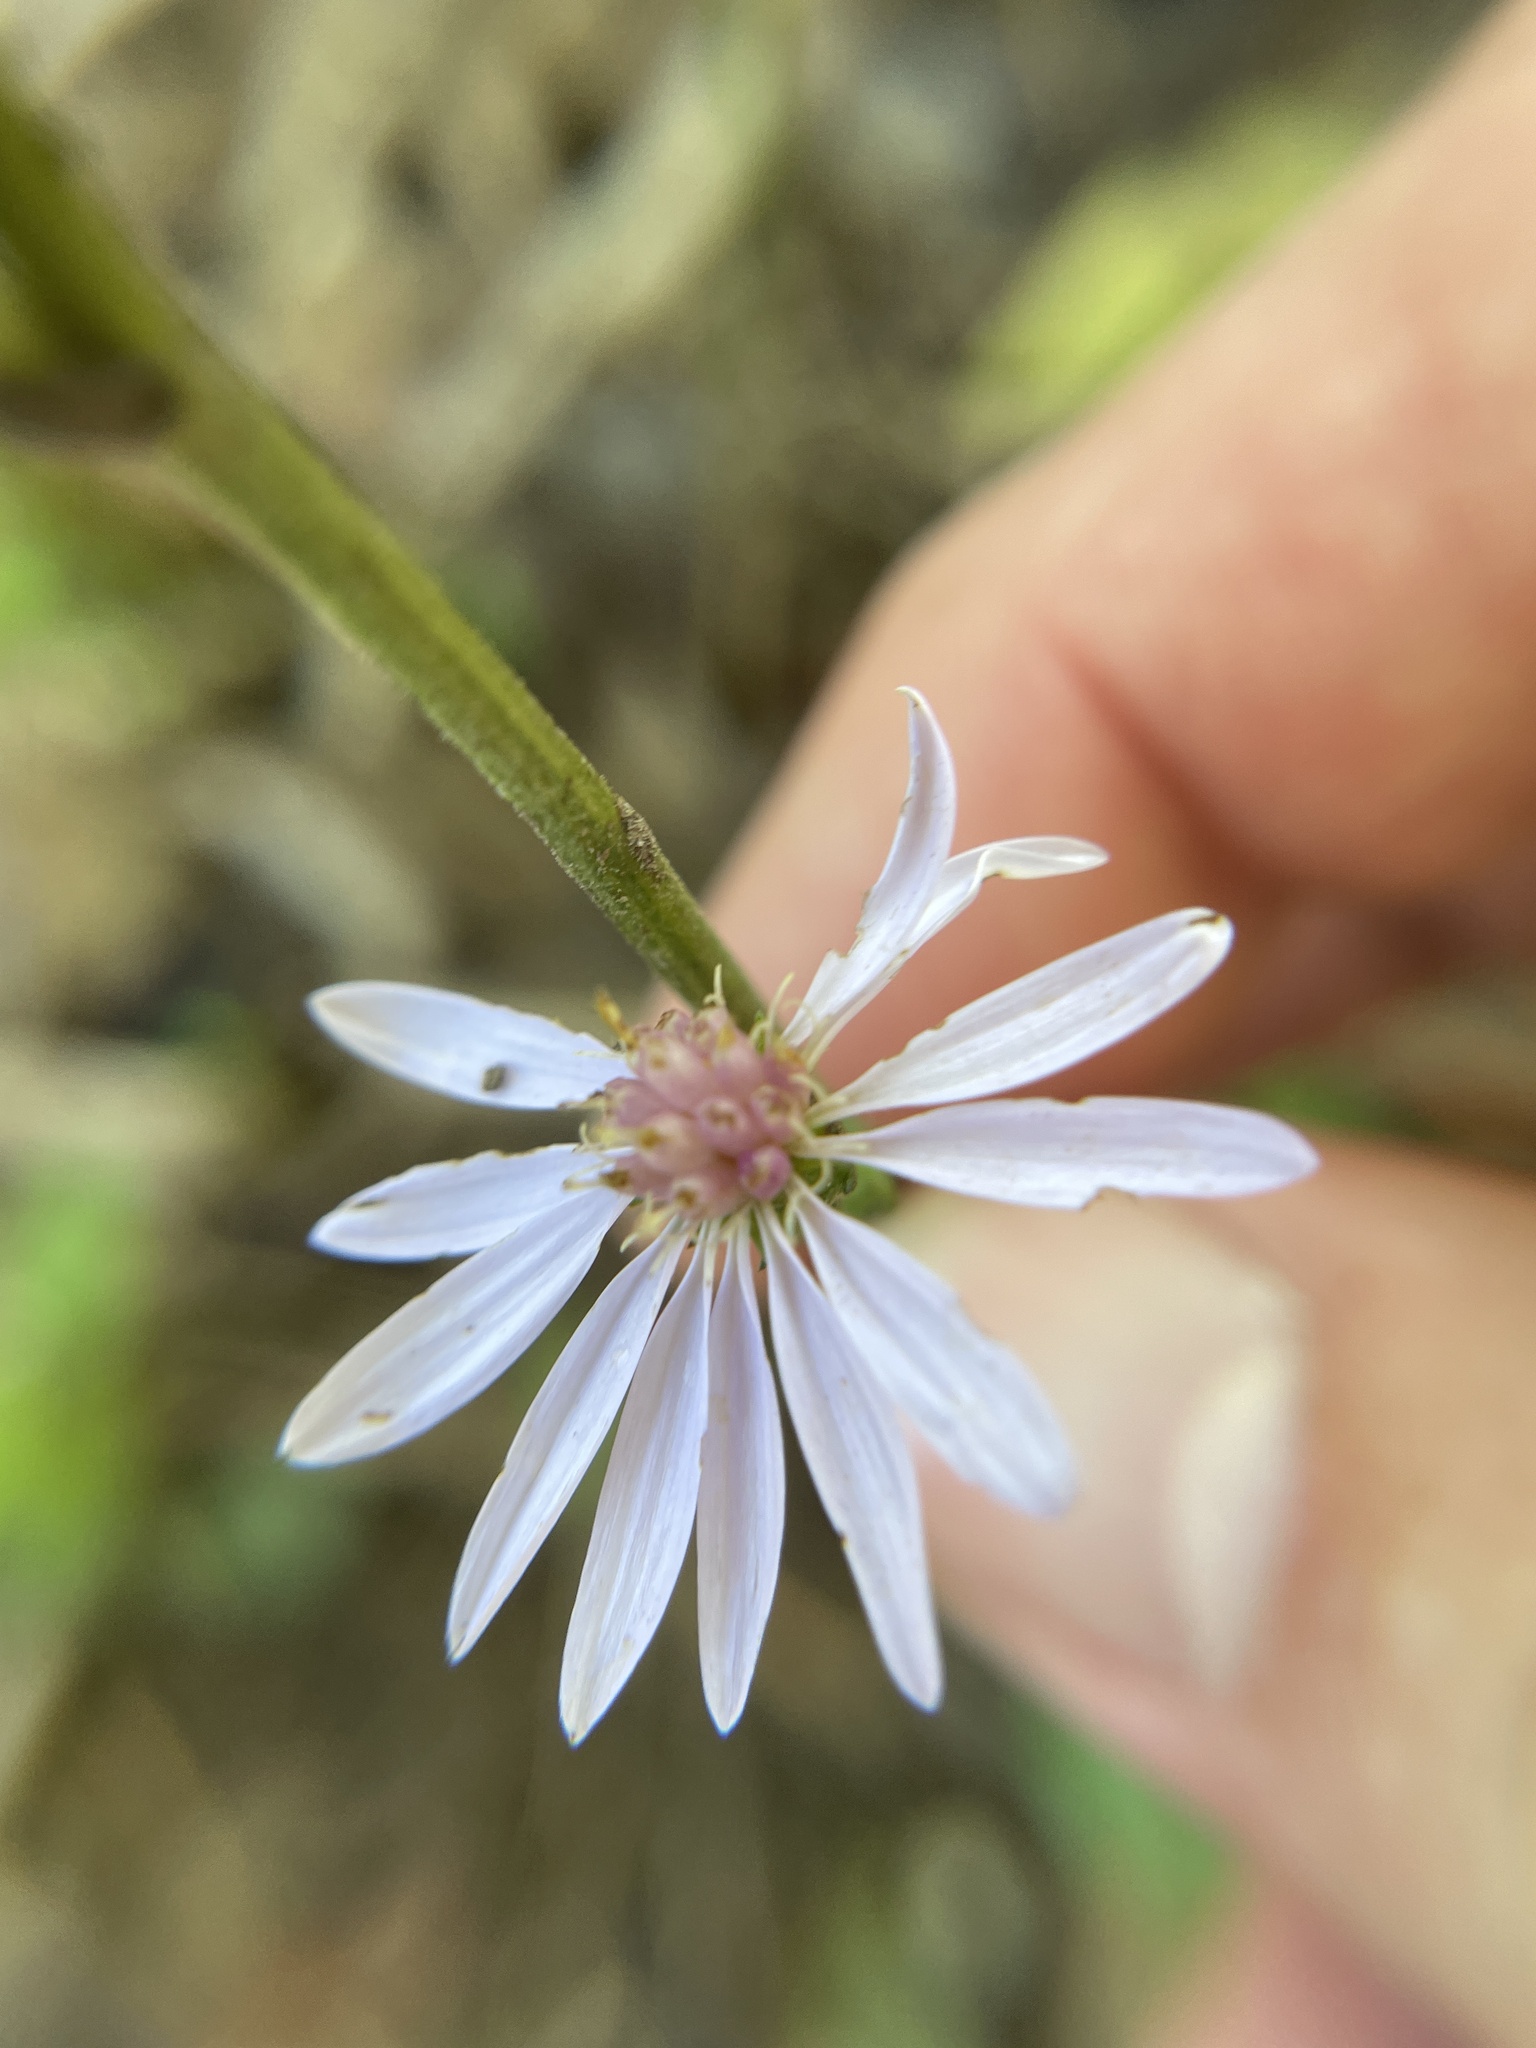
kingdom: Plantae
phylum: Tracheophyta
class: Magnoliopsida
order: Asterales
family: Asteraceae
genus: Symphyotrichum
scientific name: Symphyotrichum drummondii
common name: Drummond's aster
